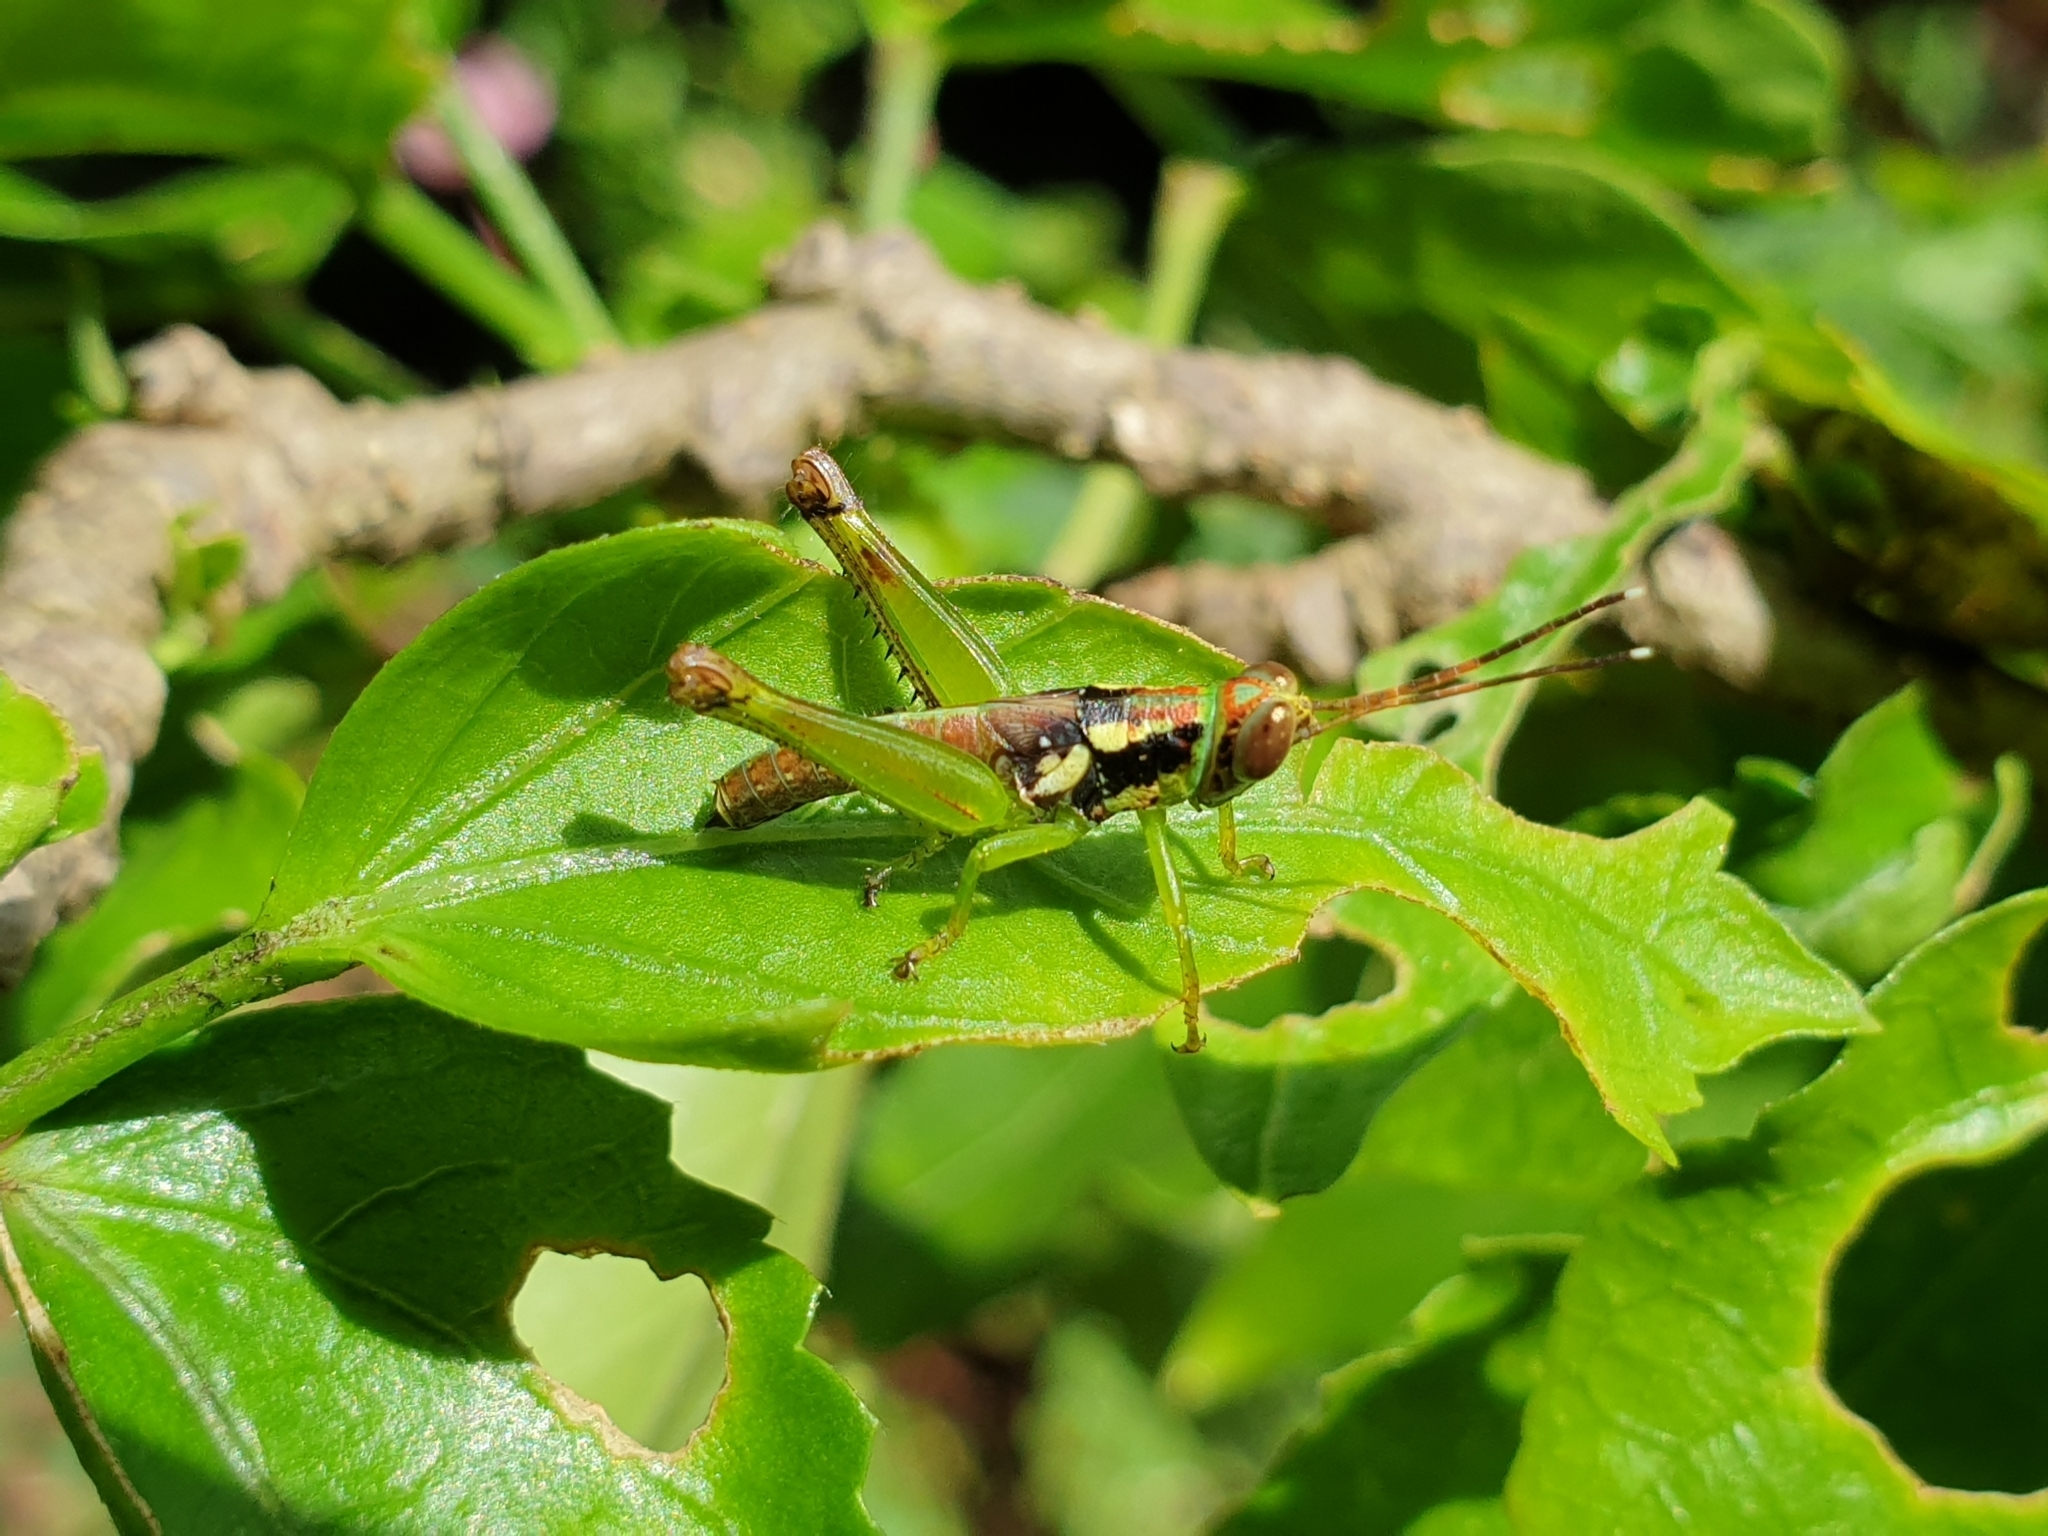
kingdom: Animalia
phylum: Arthropoda
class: Insecta
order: Orthoptera
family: Acrididae
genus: Pirithoicus
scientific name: Pirithoicus ophthalmicus
